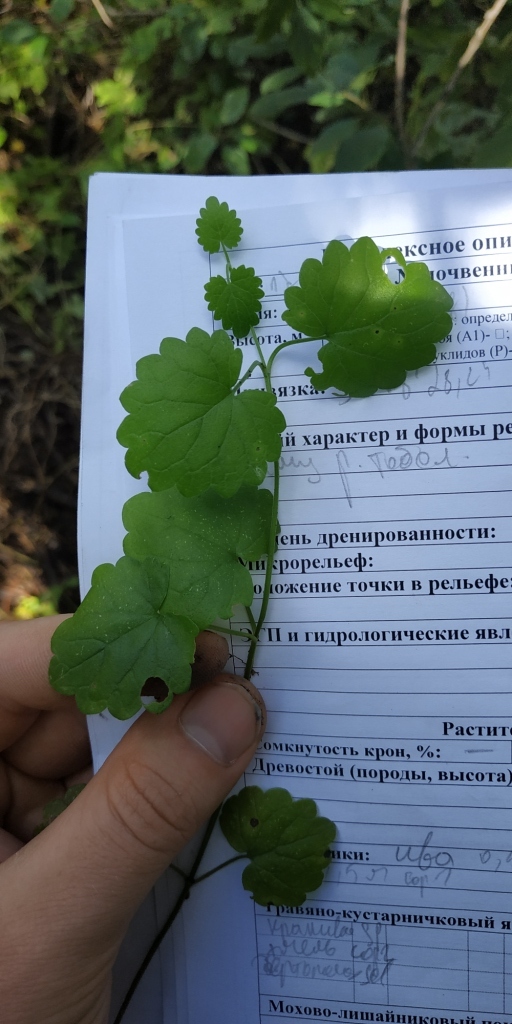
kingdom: Plantae
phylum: Tracheophyta
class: Magnoliopsida
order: Lamiales
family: Lamiaceae
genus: Glechoma
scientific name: Glechoma hederacea
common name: Ground ivy
